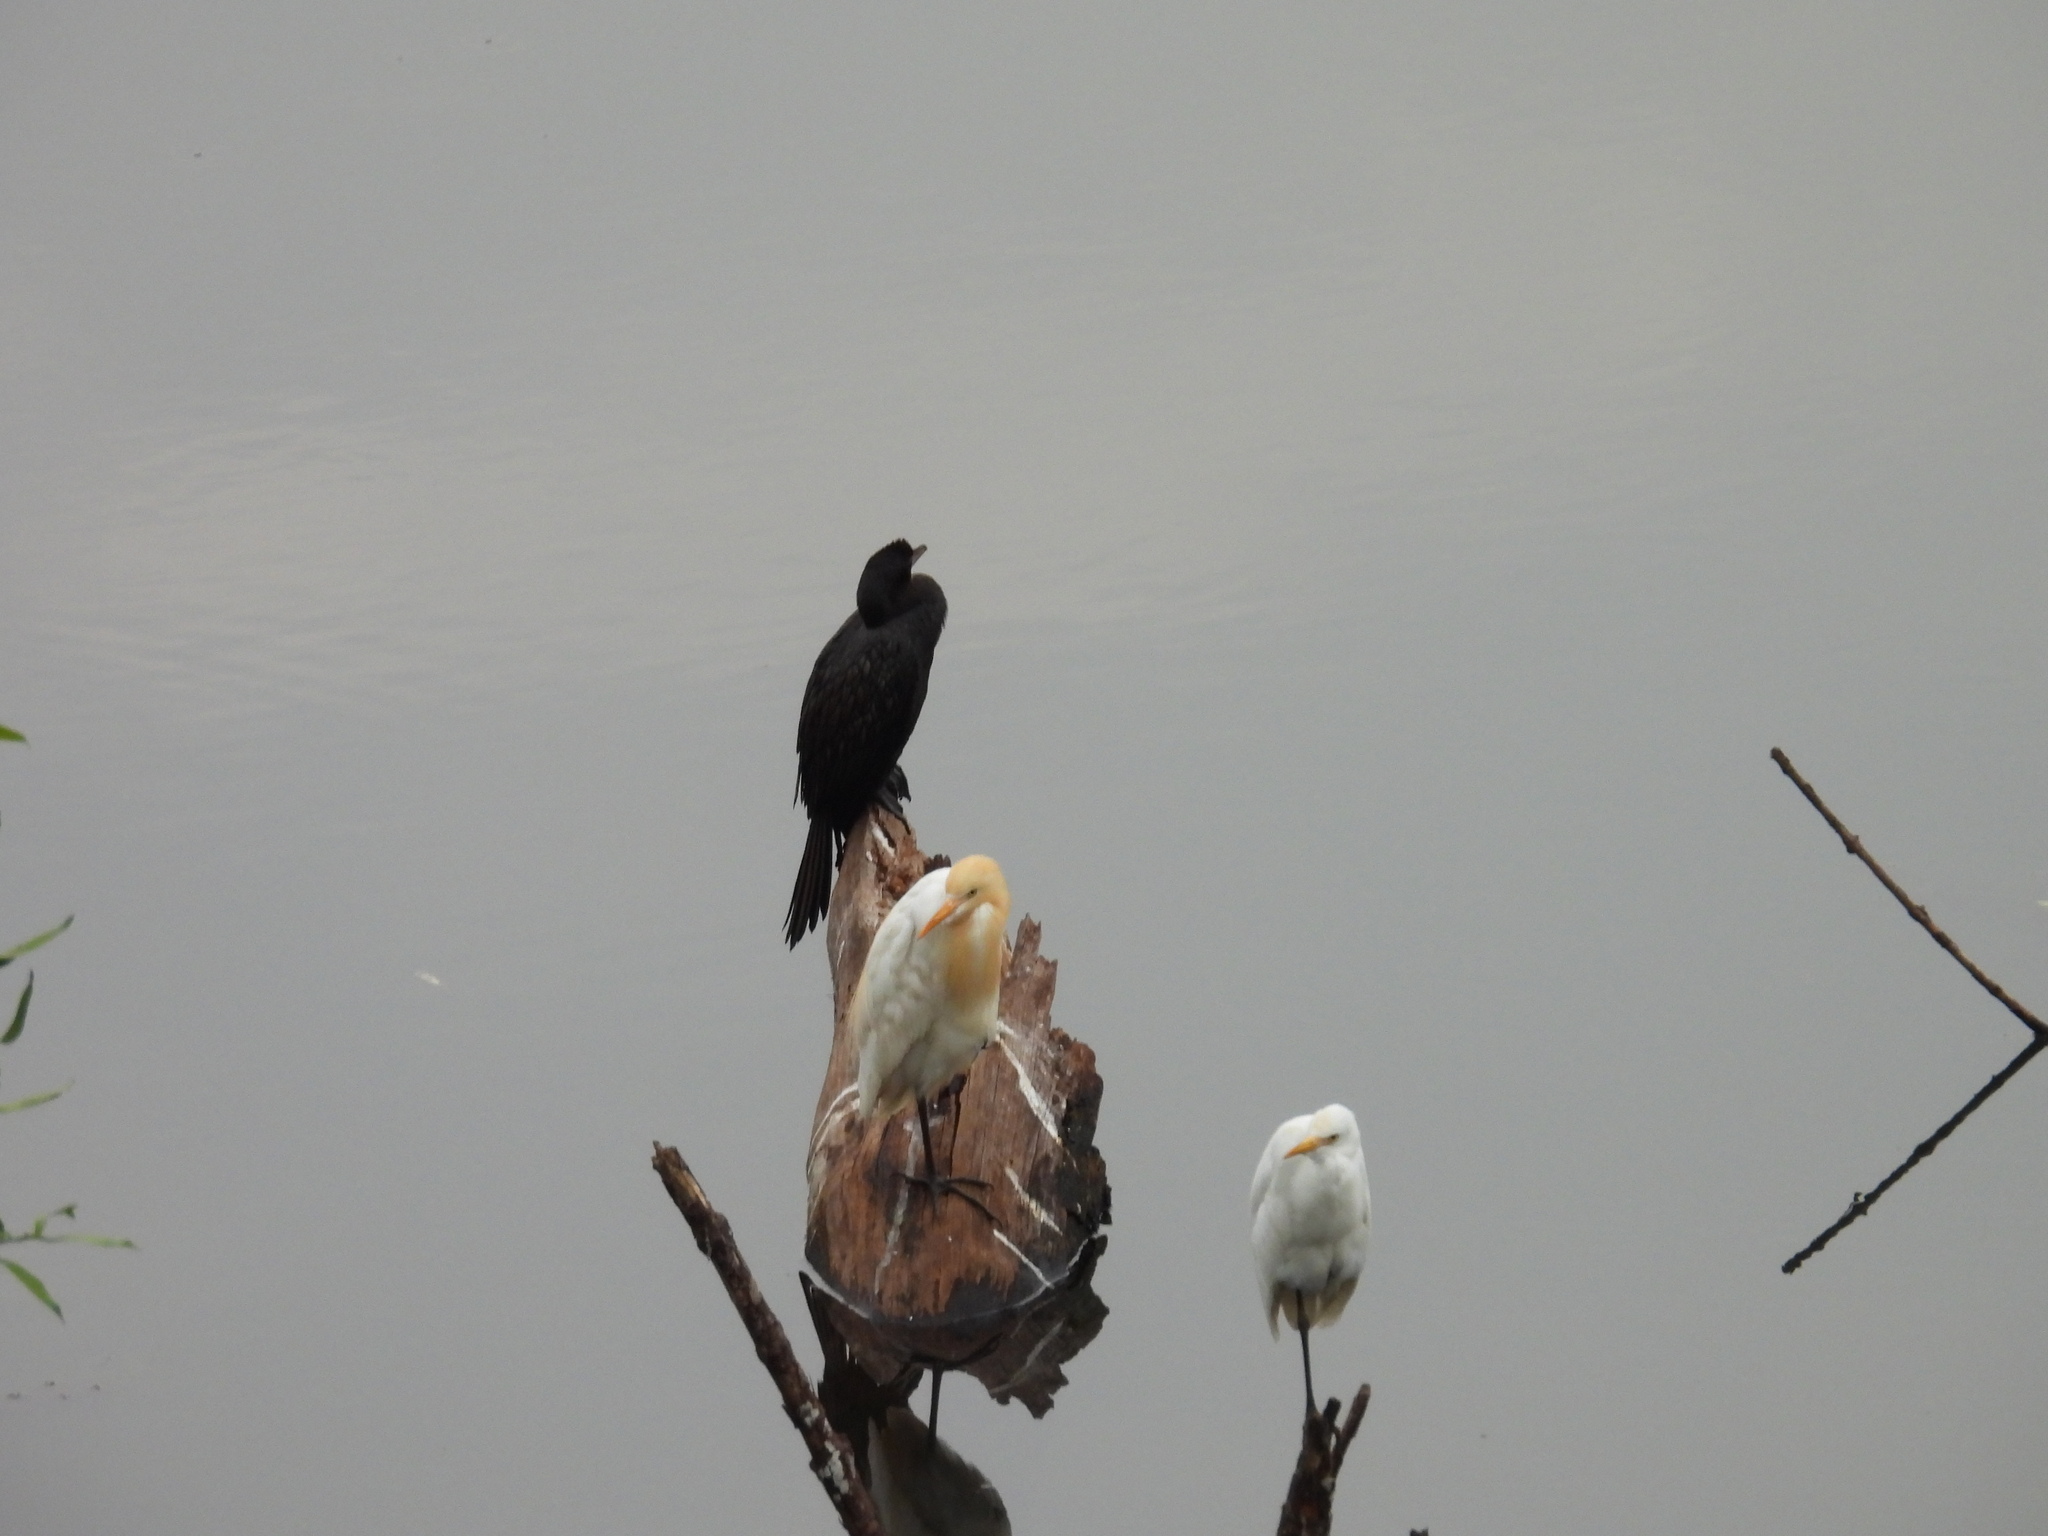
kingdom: Animalia
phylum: Chordata
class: Aves
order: Suliformes
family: Phalacrocoracidae
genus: Microcarbo
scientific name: Microcarbo niger
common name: Little cormorant
